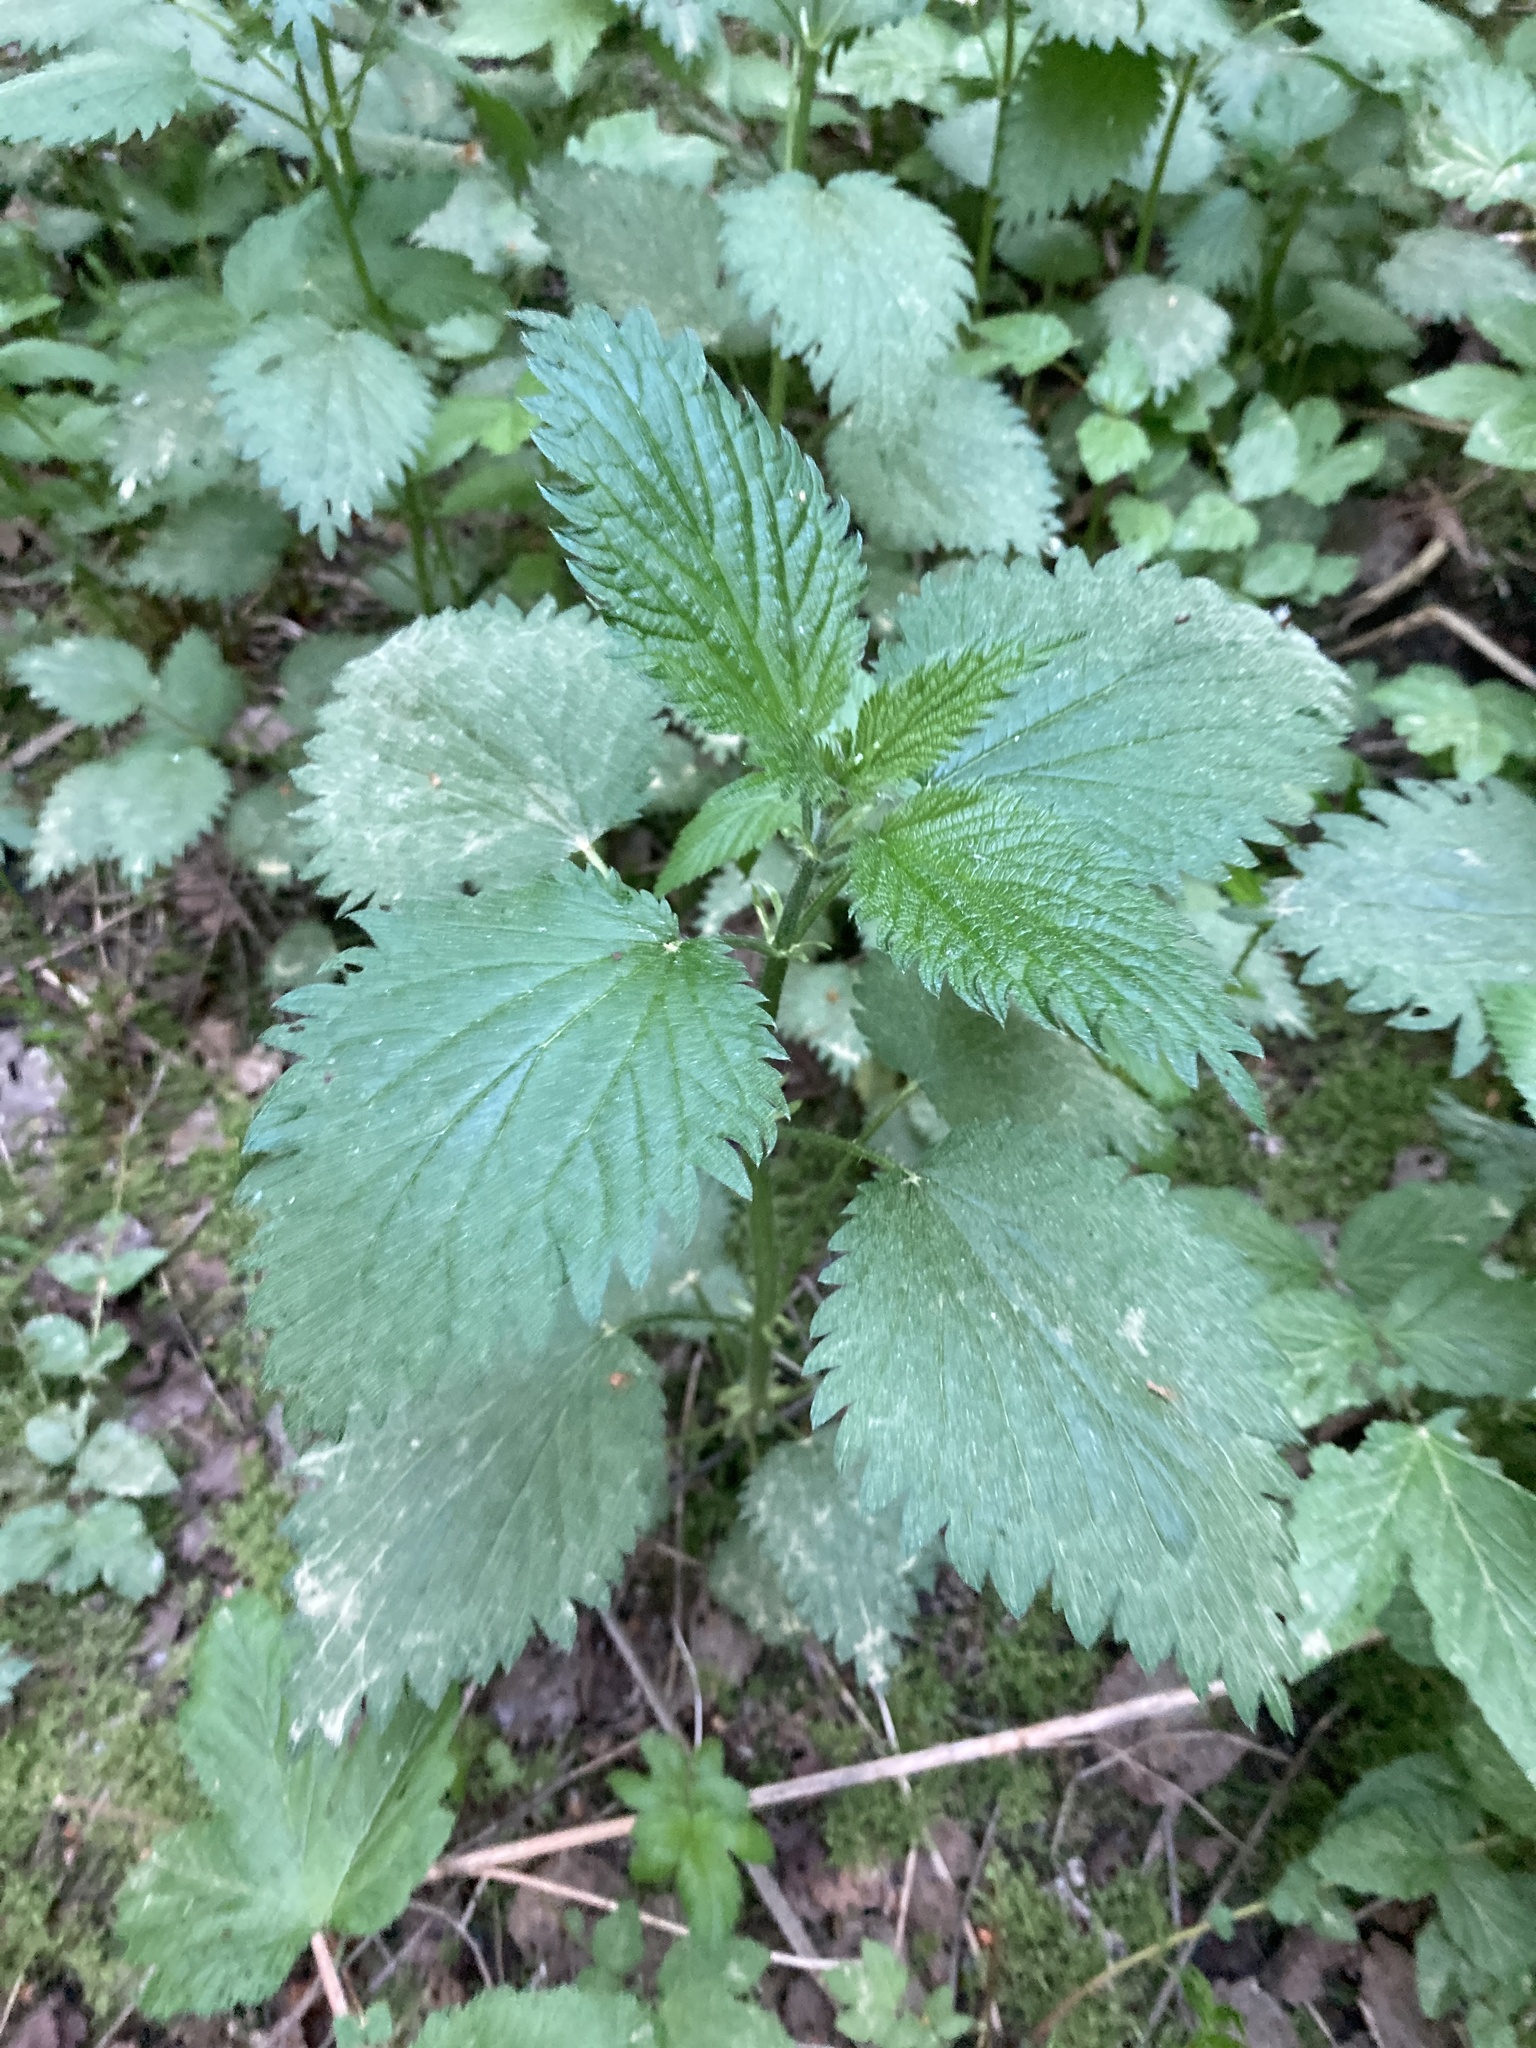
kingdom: Plantae
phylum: Tracheophyta
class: Magnoliopsida
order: Rosales
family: Urticaceae
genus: Urtica
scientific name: Urtica dioica
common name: Common nettle
